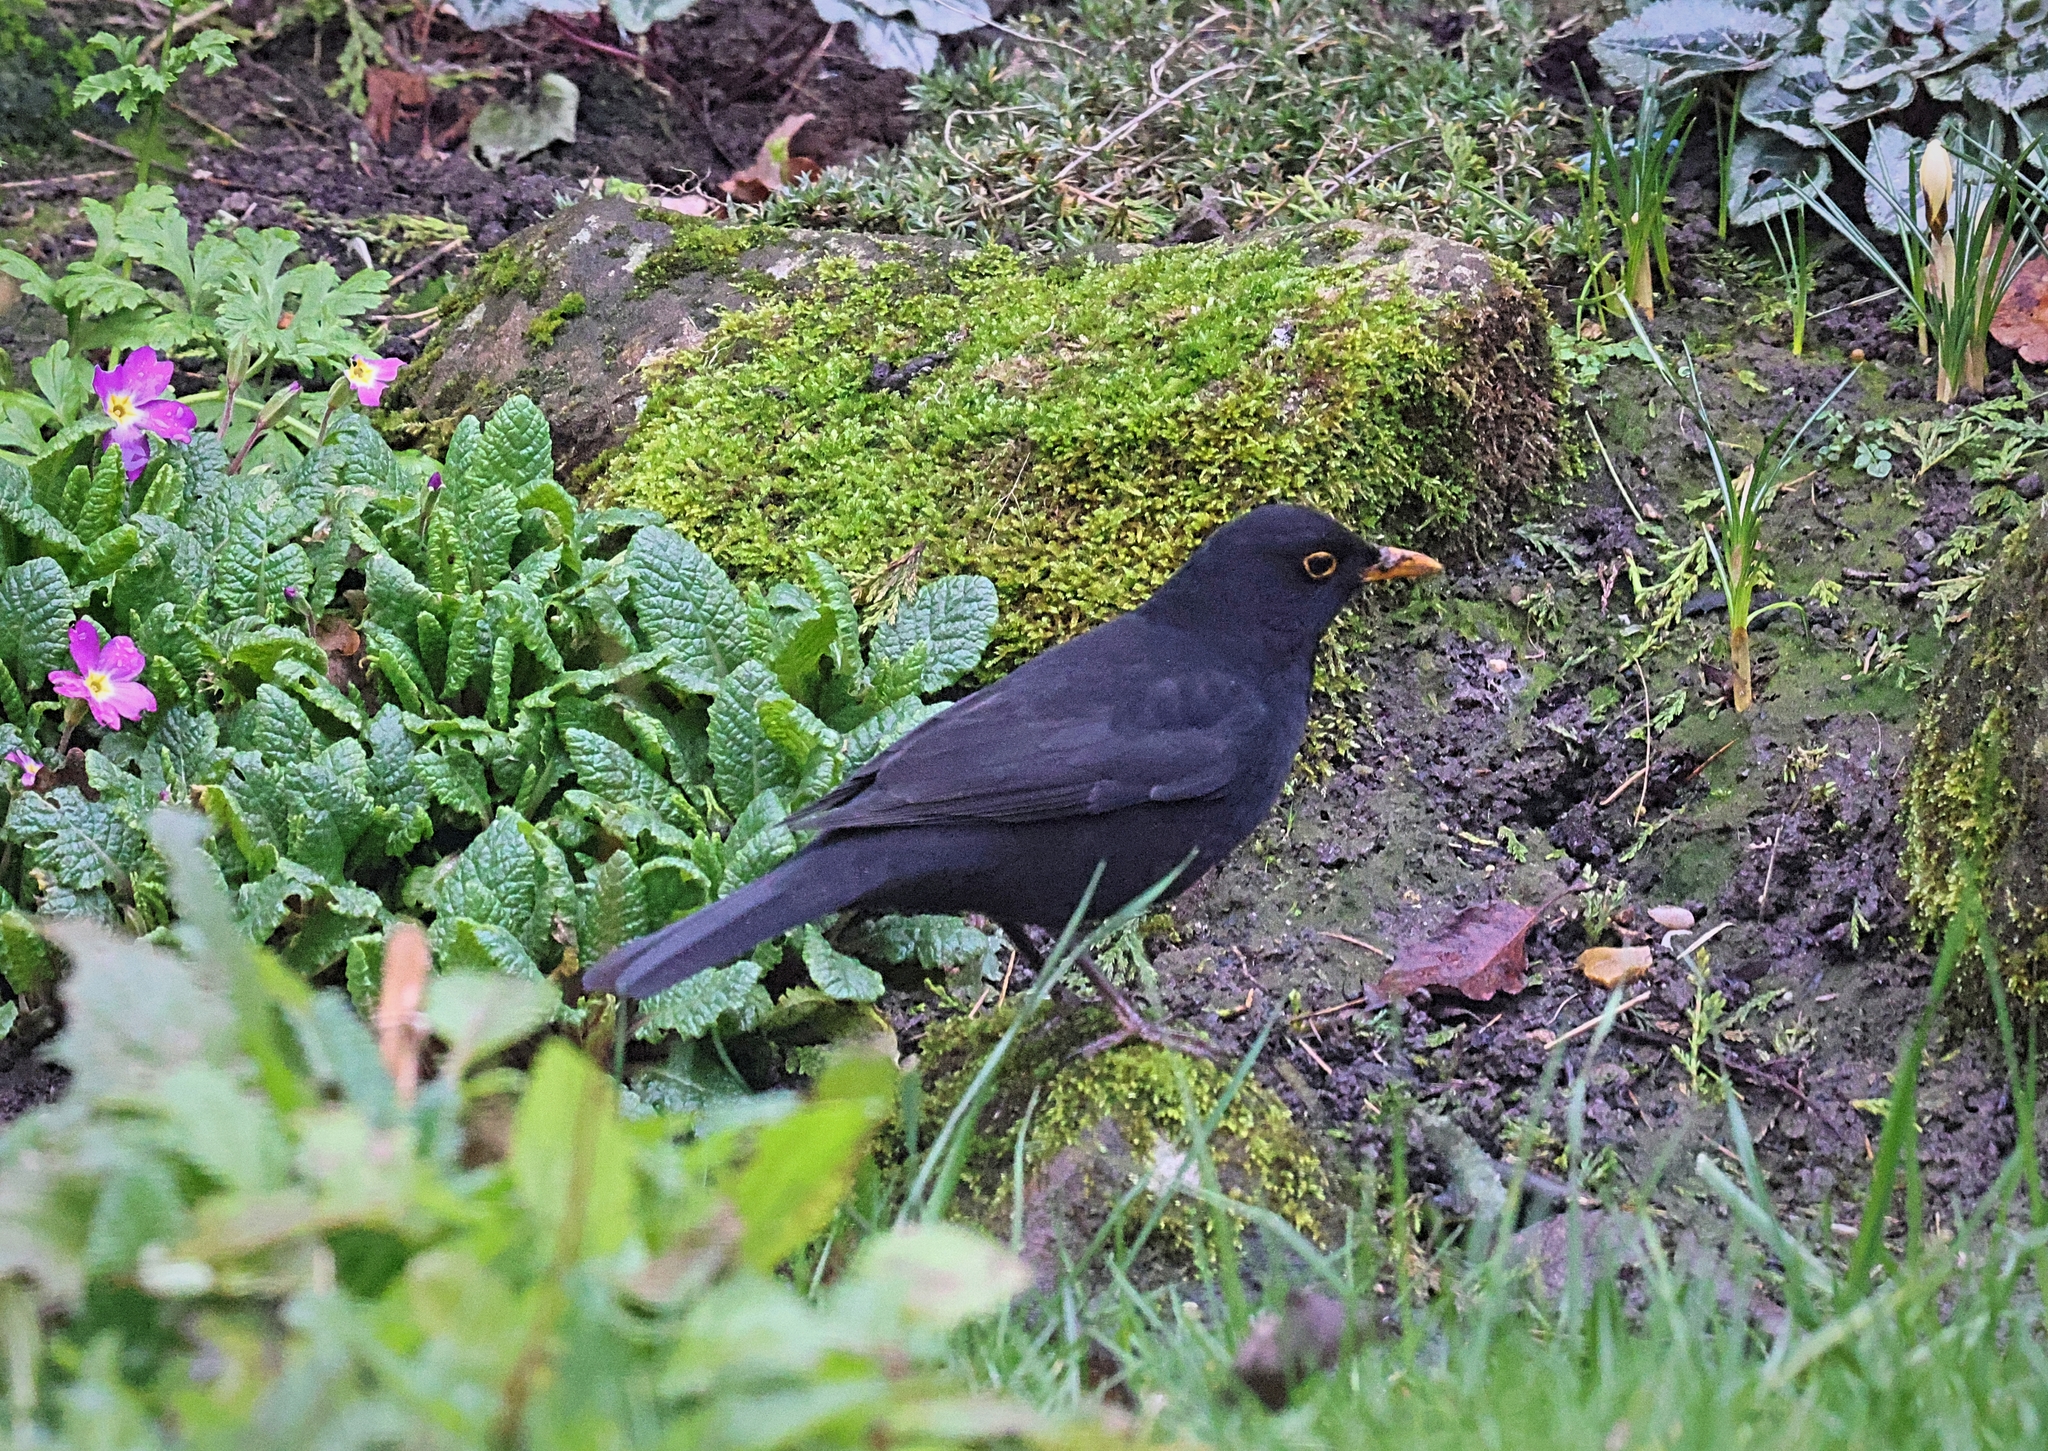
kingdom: Animalia
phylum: Chordata
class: Aves
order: Passeriformes
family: Turdidae
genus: Turdus
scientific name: Turdus merula
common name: Common blackbird
